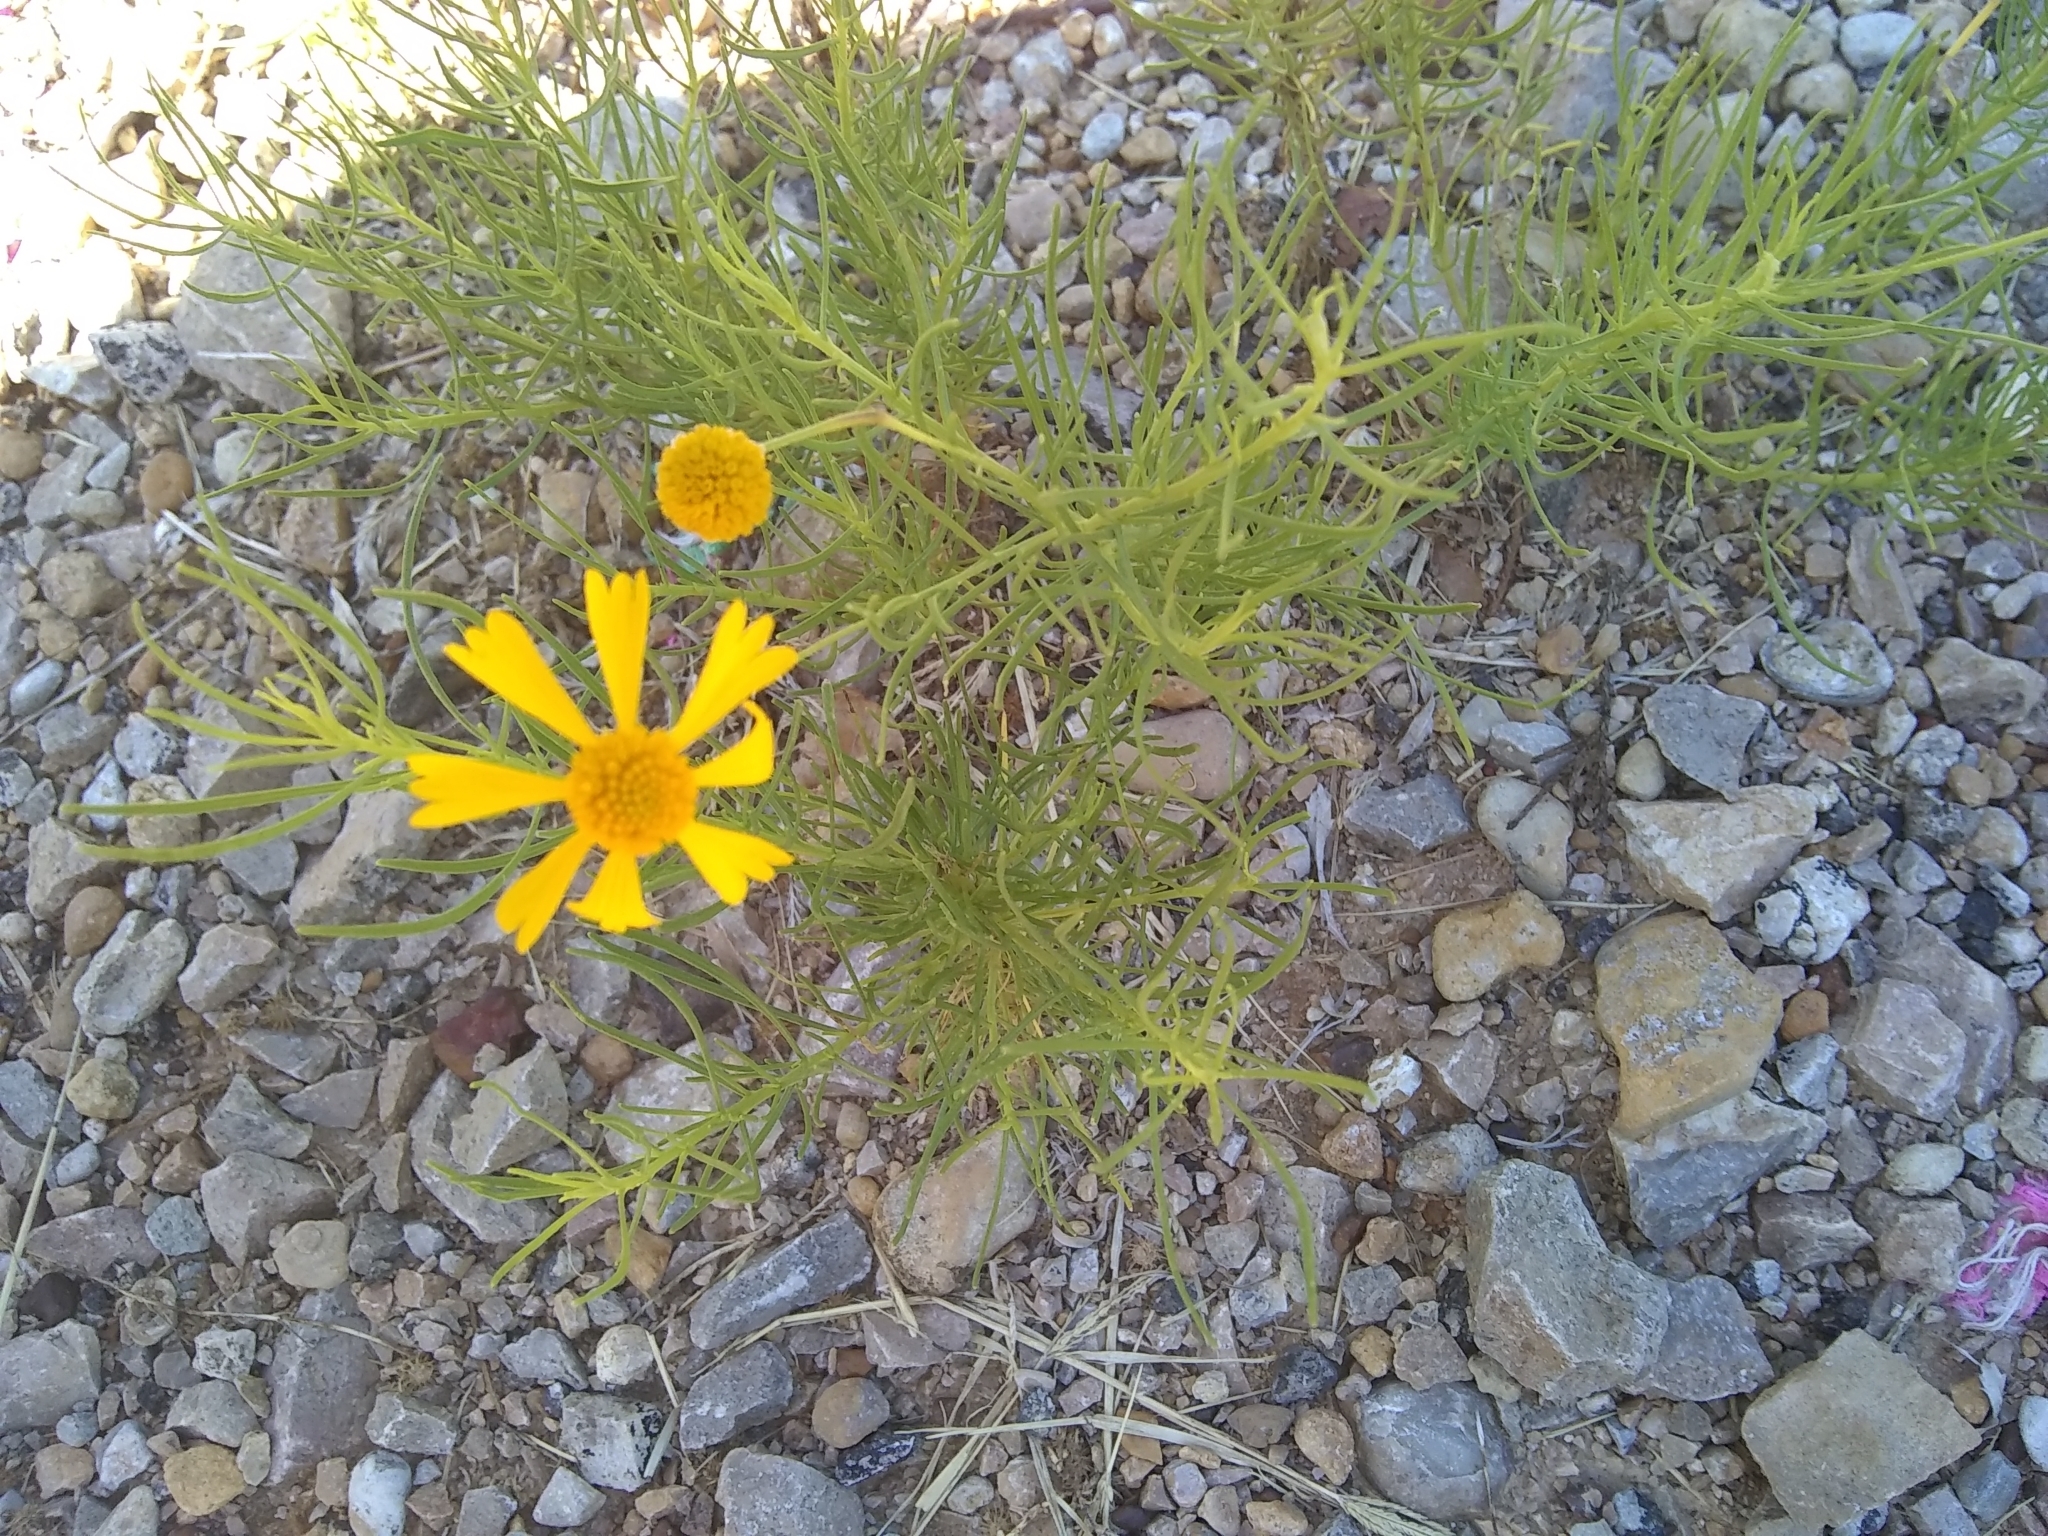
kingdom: Plantae
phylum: Tracheophyta
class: Magnoliopsida
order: Asterales
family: Asteraceae
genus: Helenium
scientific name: Helenium amarum
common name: Bitter sneezeweed
